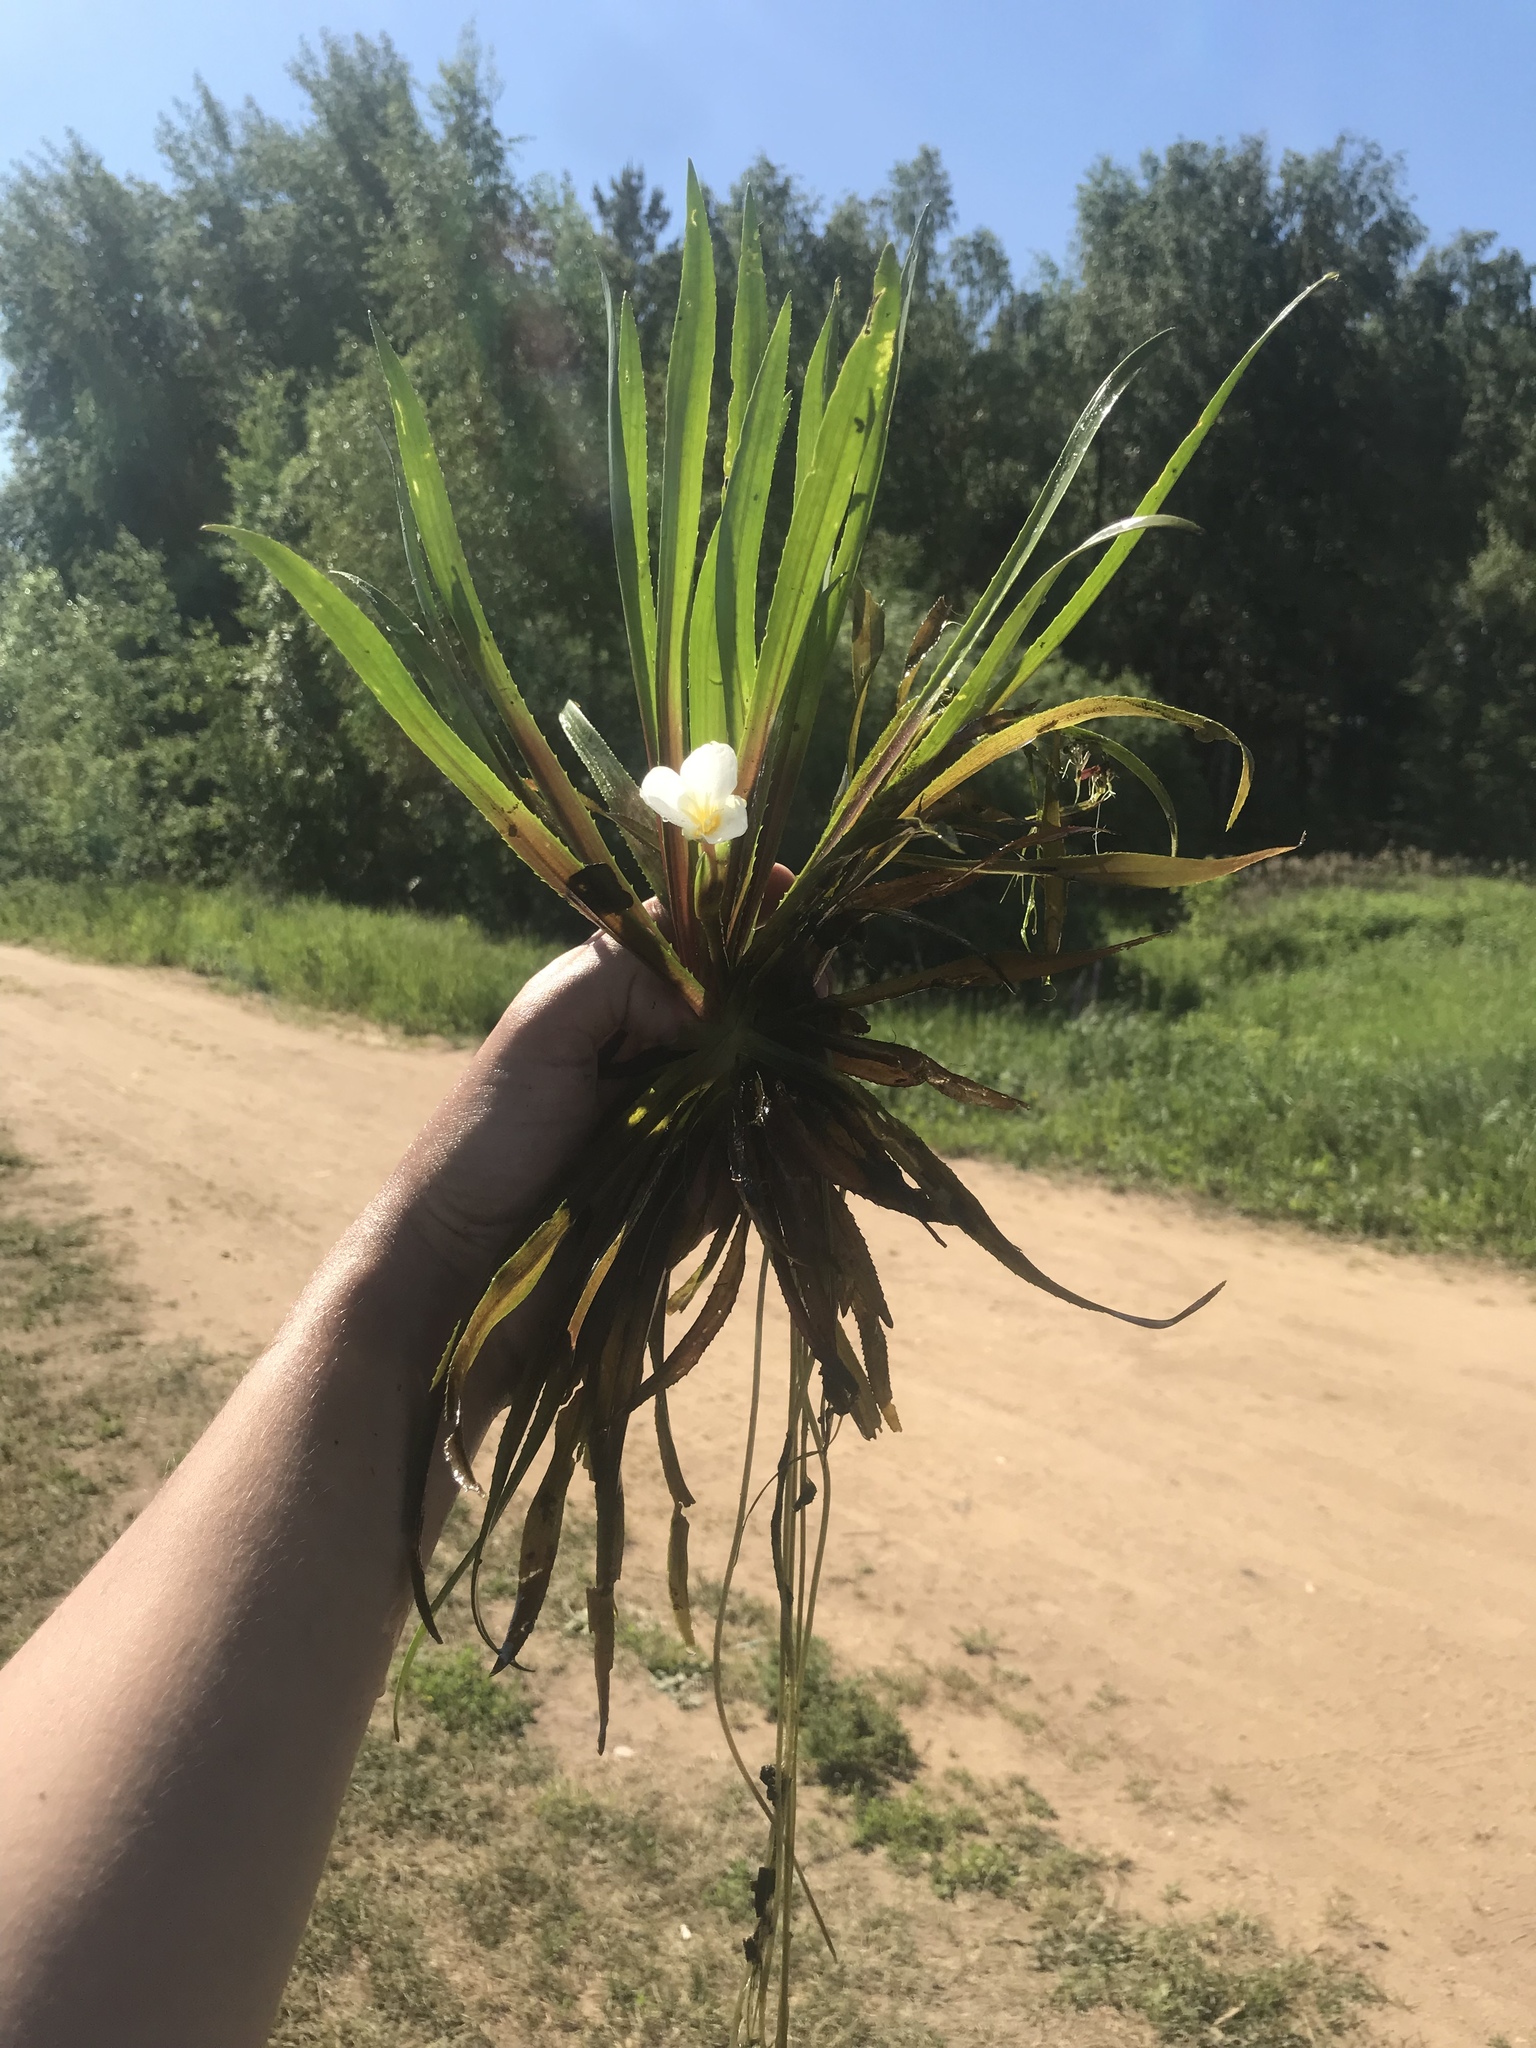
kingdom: Plantae
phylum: Tracheophyta
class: Liliopsida
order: Alismatales
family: Hydrocharitaceae
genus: Stratiotes
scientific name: Stratiotes aloides
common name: Water-soldier
